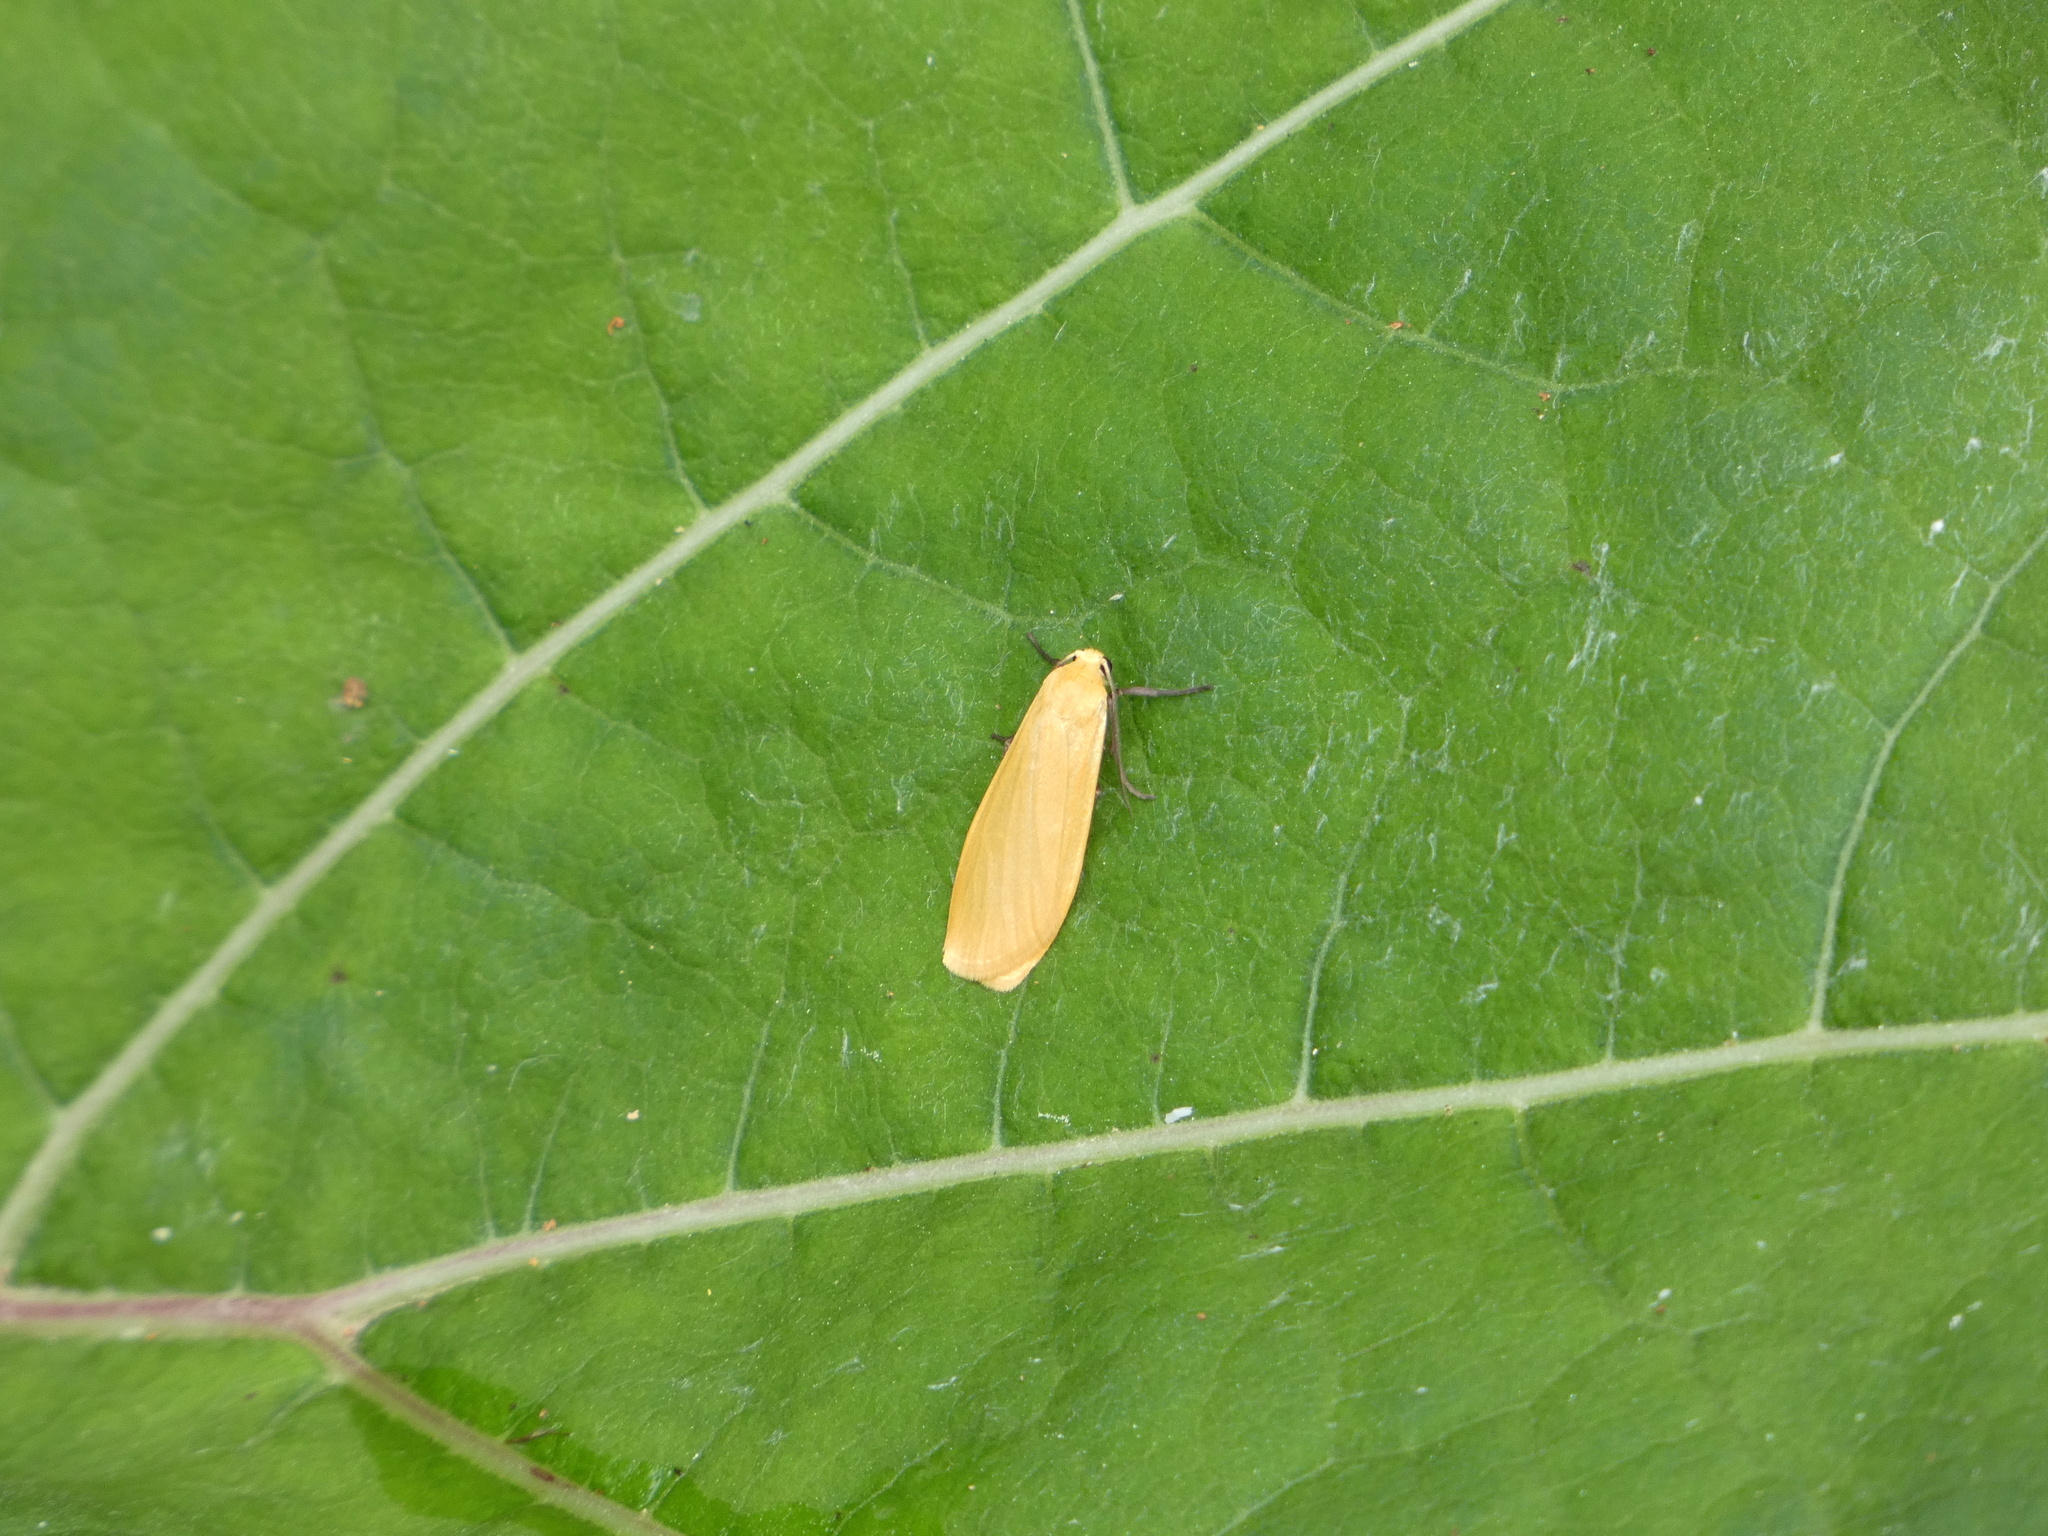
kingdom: Animalia
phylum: Arthropoda
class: Insecta
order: Lepidoptera
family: Erebidae
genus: Wittia
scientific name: Wittia sororcula
